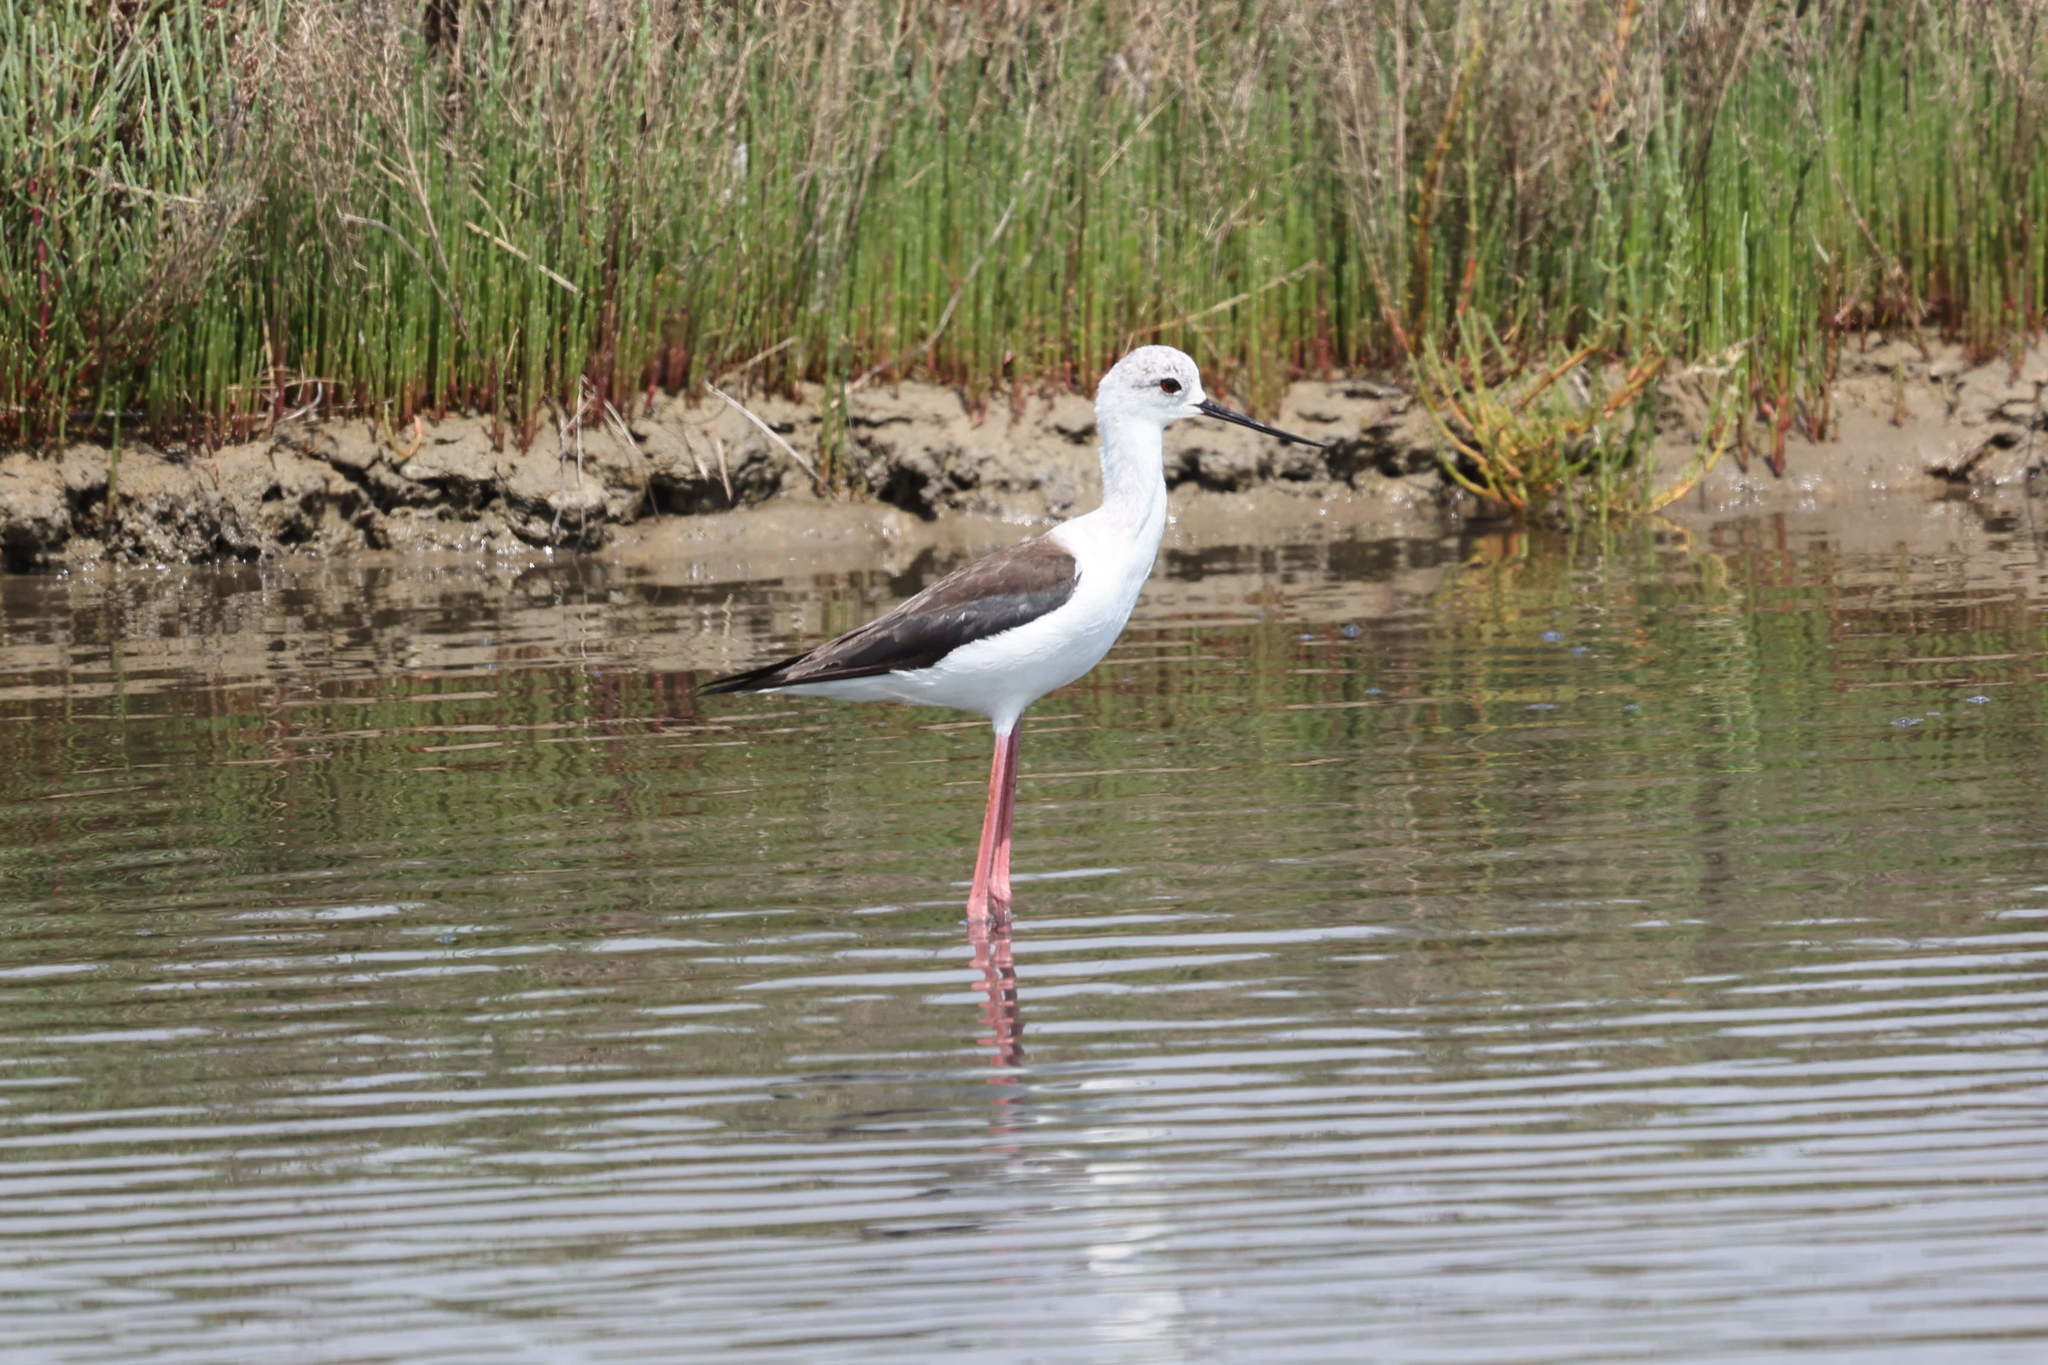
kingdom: Animalia
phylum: Chordata
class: Aves
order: Charadriiformes
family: Recurvirostridae
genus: Himantopus
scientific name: Himantopus himantopus
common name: Black-winged stilt
